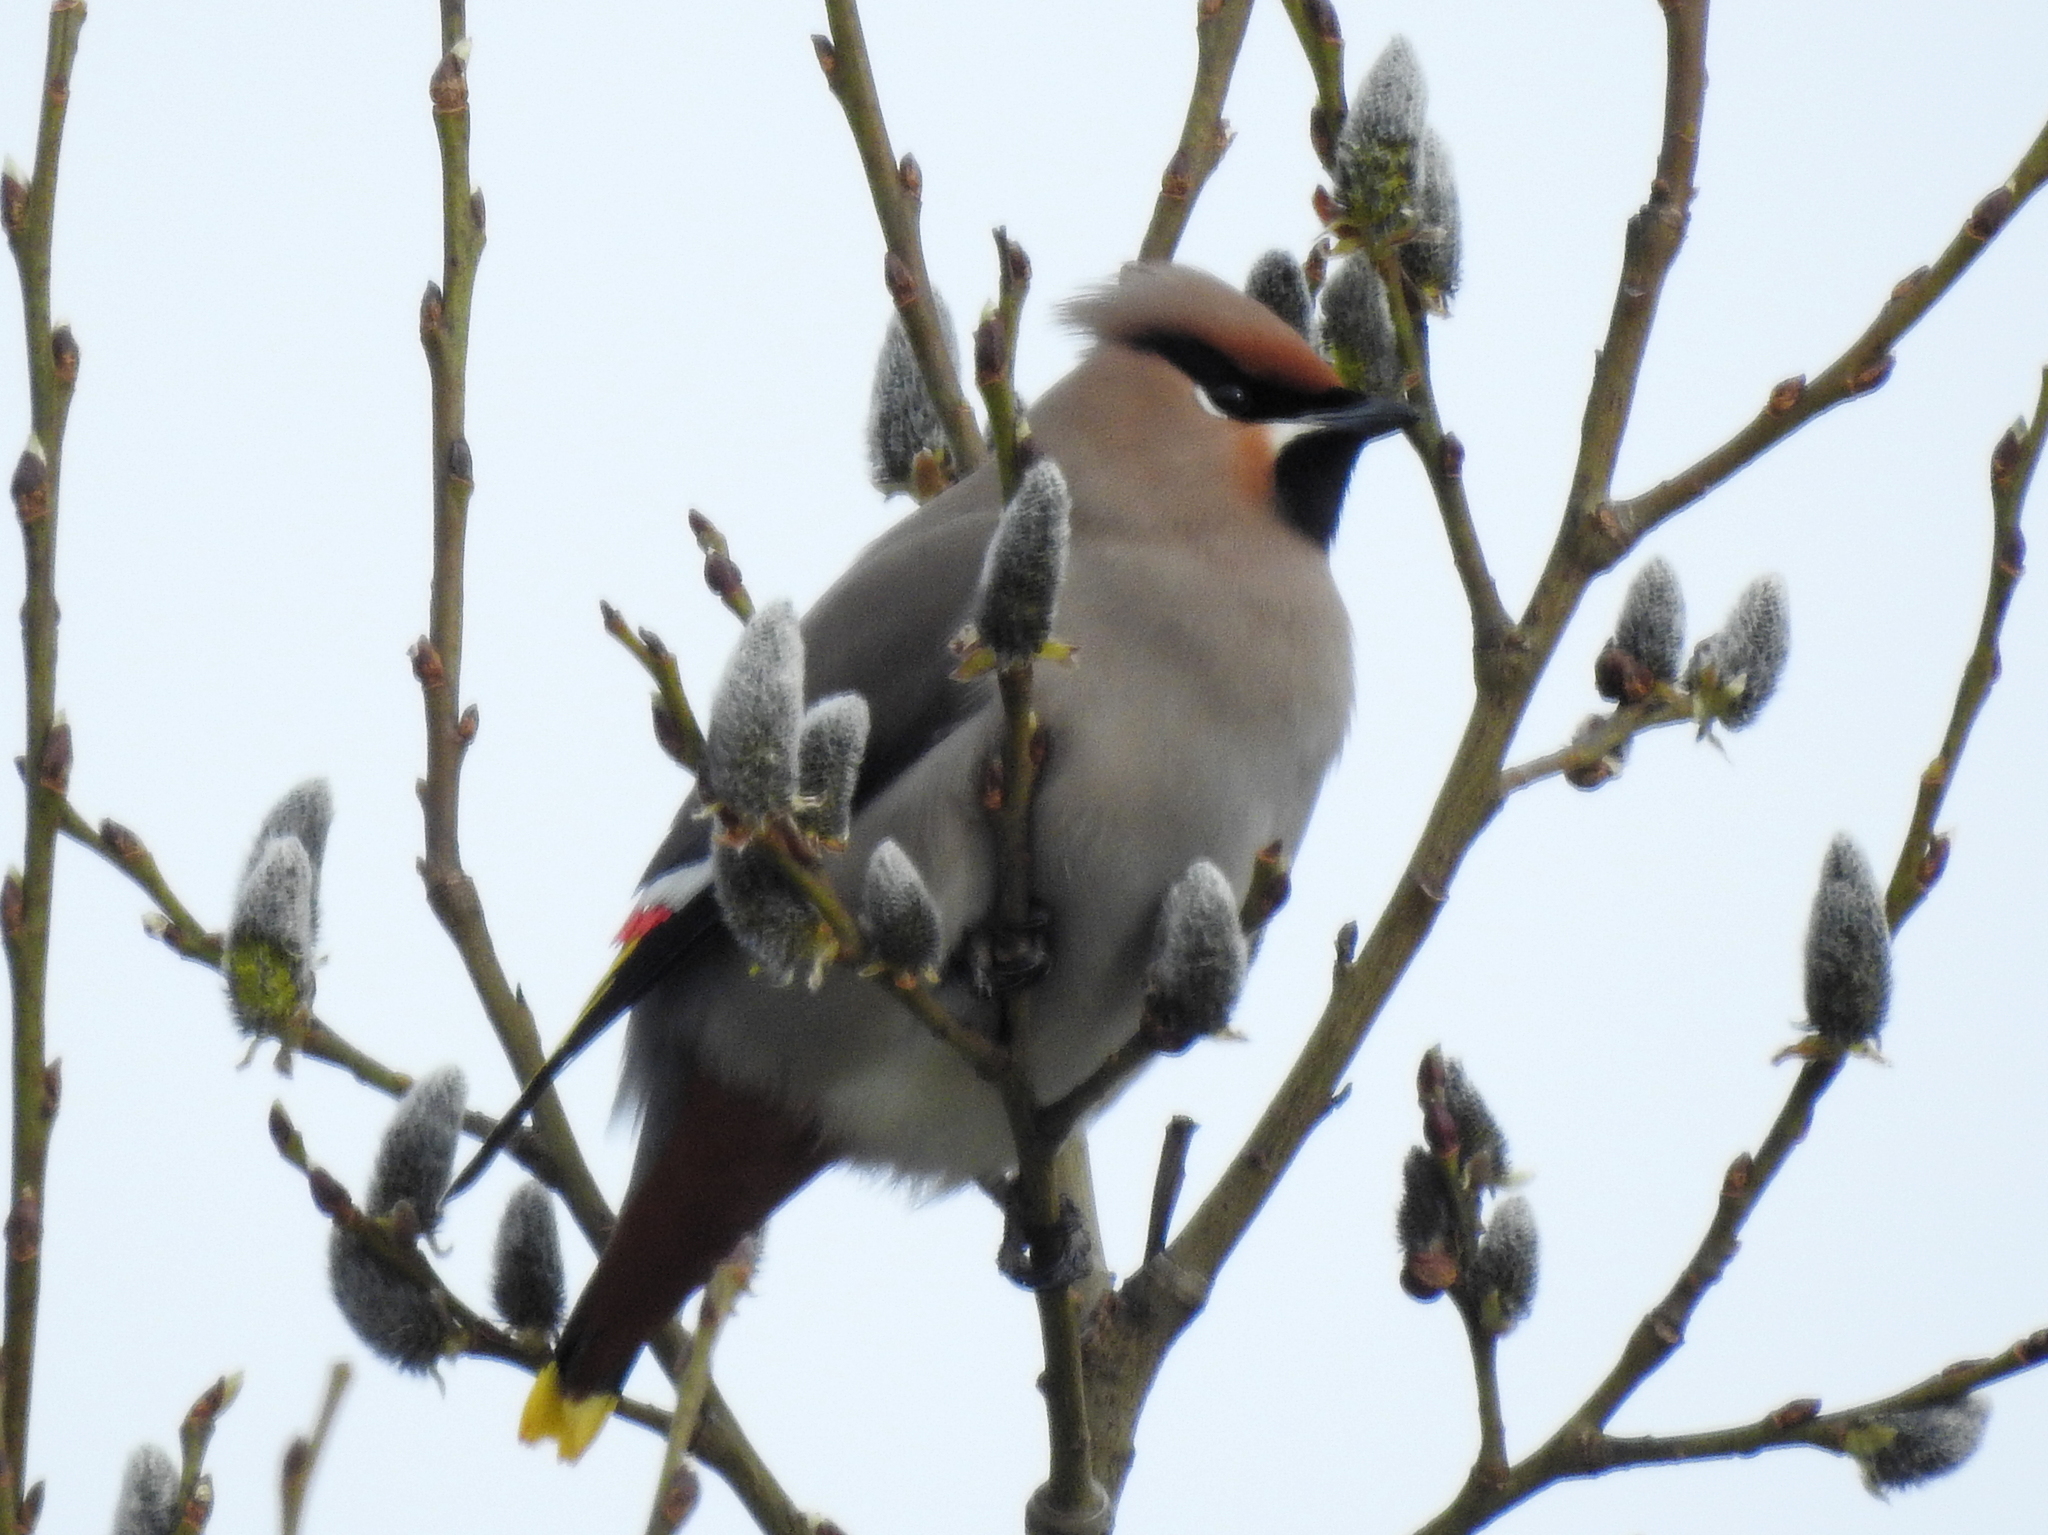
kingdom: Animalia
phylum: Chordata
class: Aves
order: Passeriformes
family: Bombycillidae
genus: Bombycilla
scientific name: Bombycilla garrulus
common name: Bohemian waxwing
